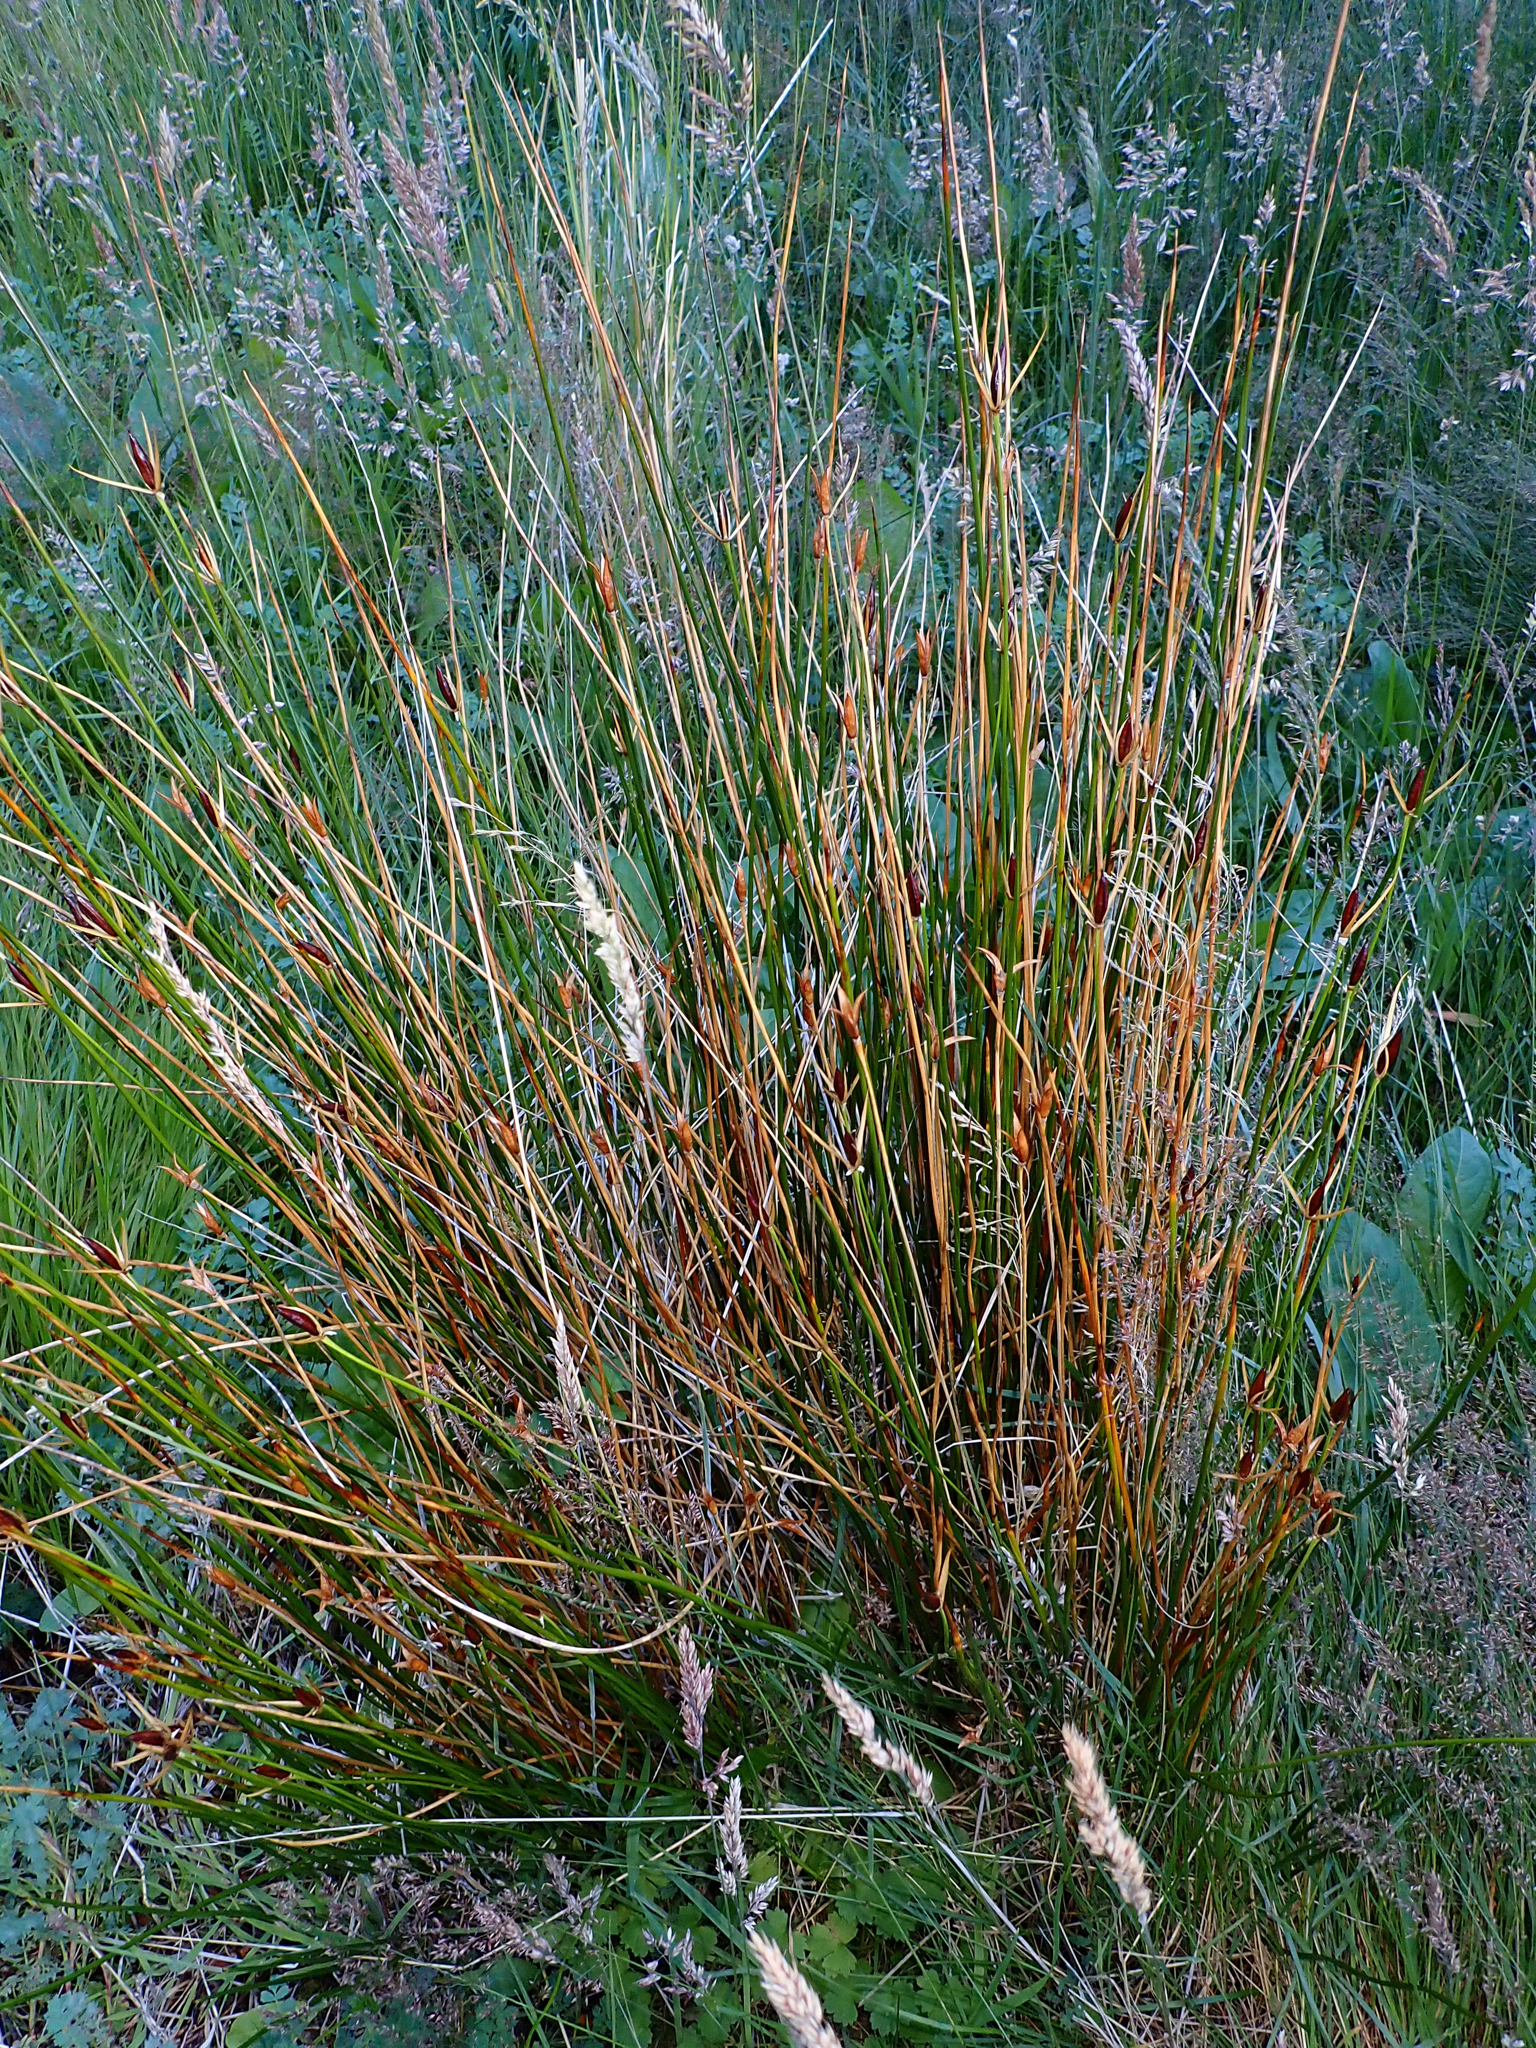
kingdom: Plantae
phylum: Tracheophyta
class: Liliopsida
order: Poales
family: Juncaceae
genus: Marsippospermum
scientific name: Marsippospermum grandiflorum
